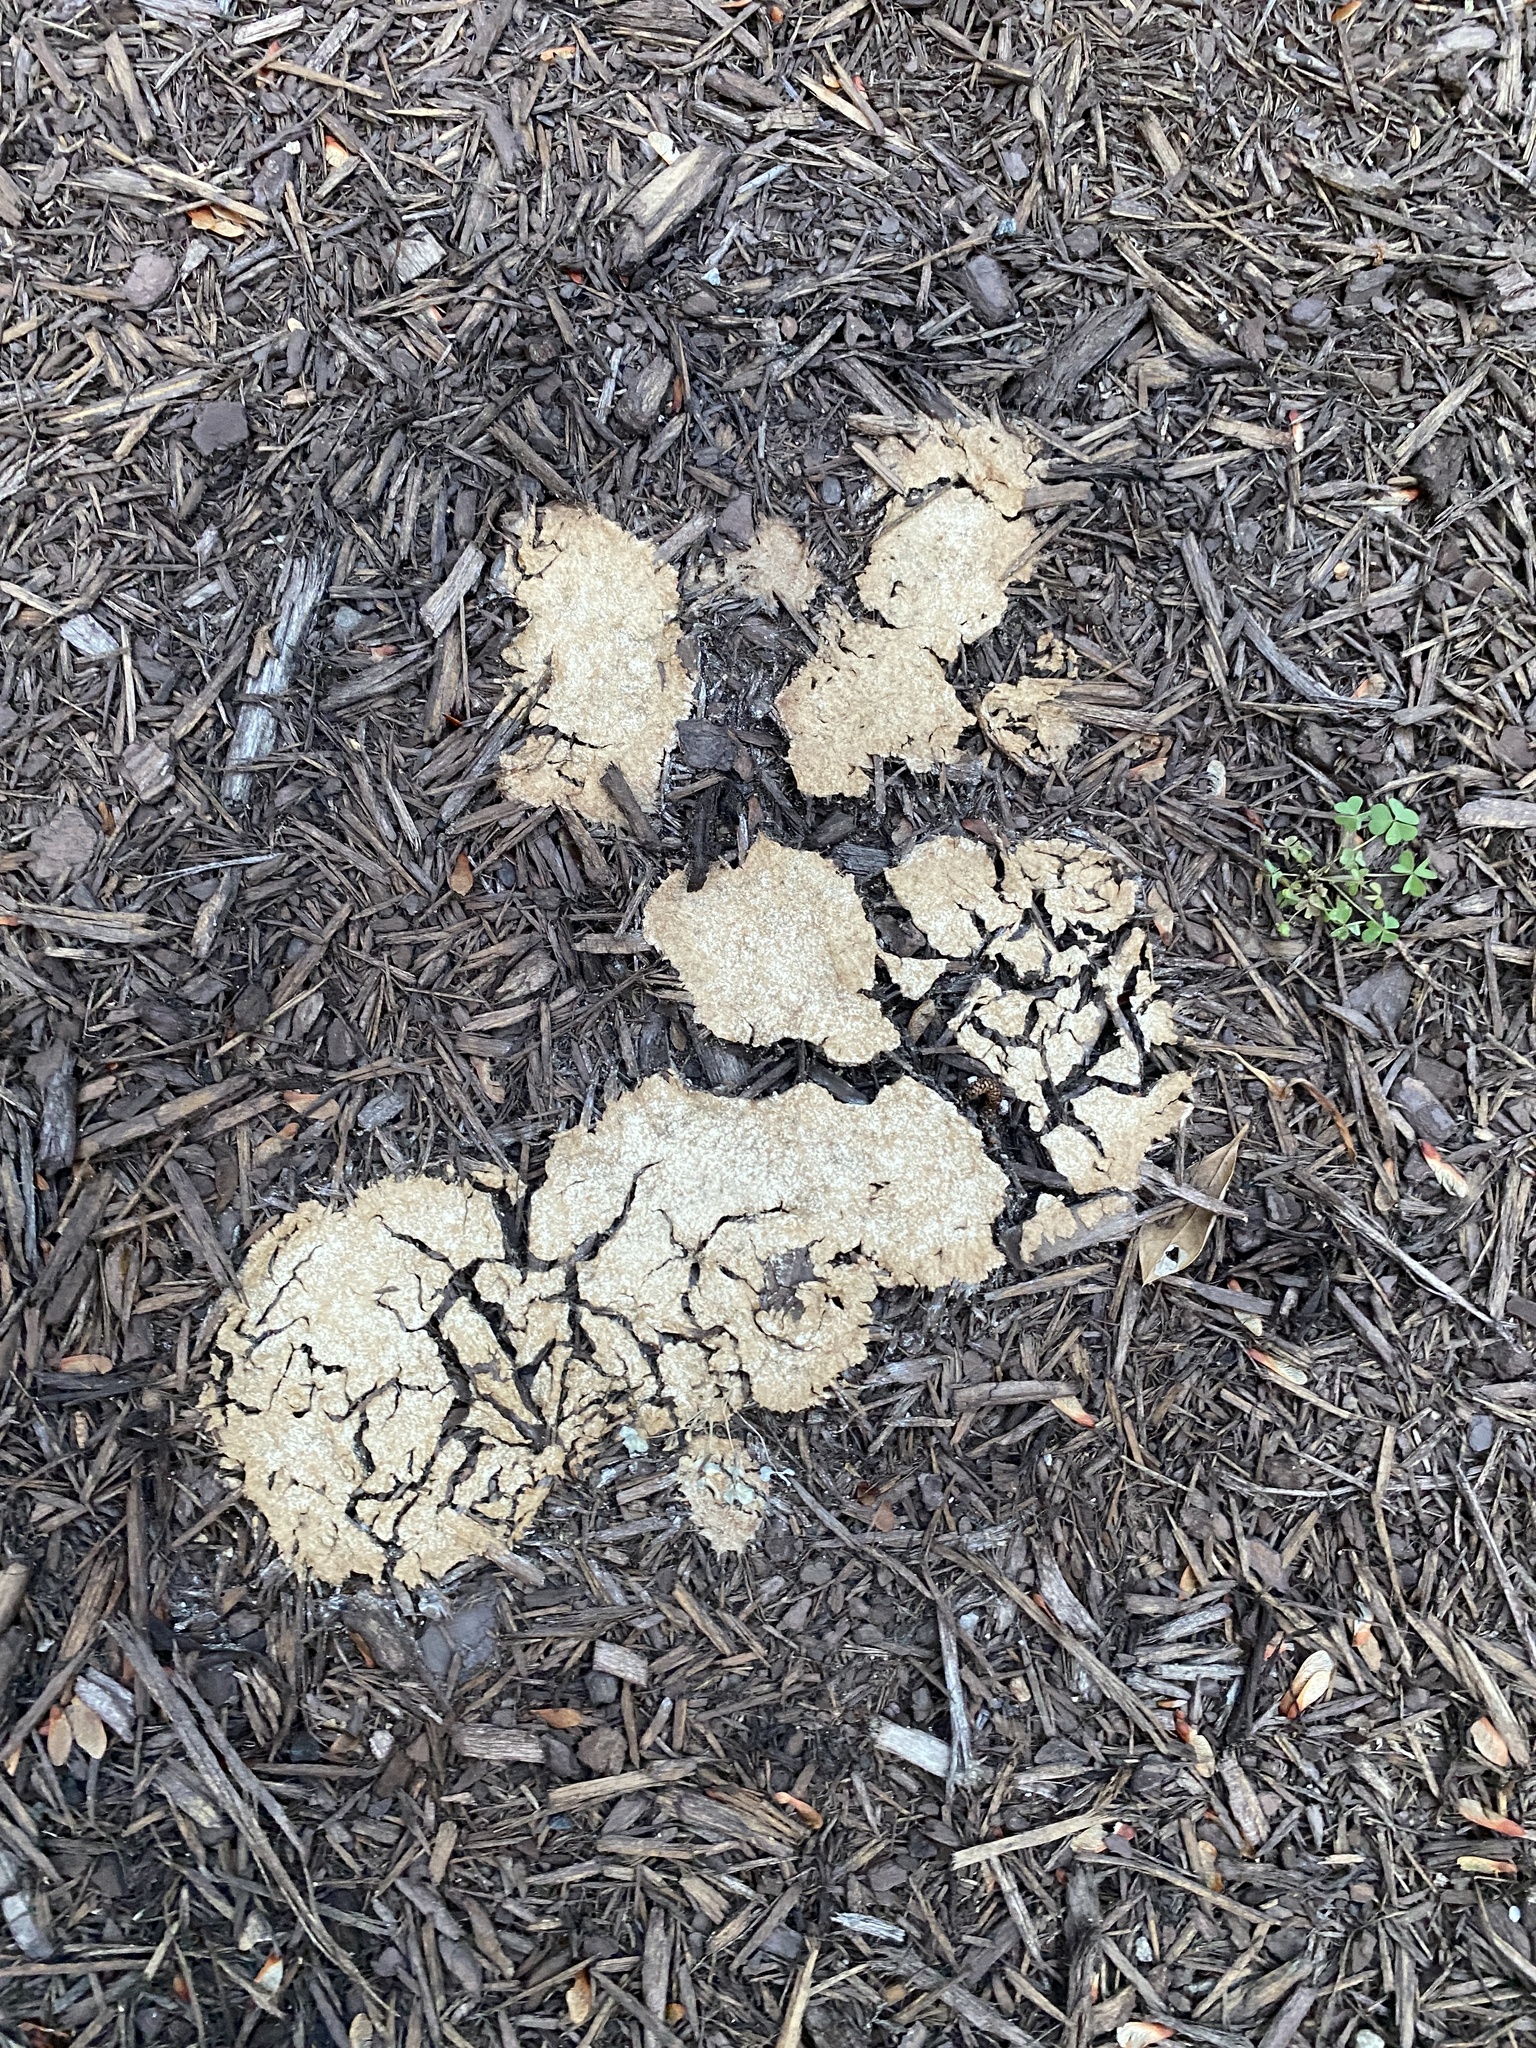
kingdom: Protozoa
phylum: Mycetozoa
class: Myxomycetes
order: Physarales
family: Physaraceae
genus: Fuligo
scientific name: Fuligo septica
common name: Dog vomit slime mold
